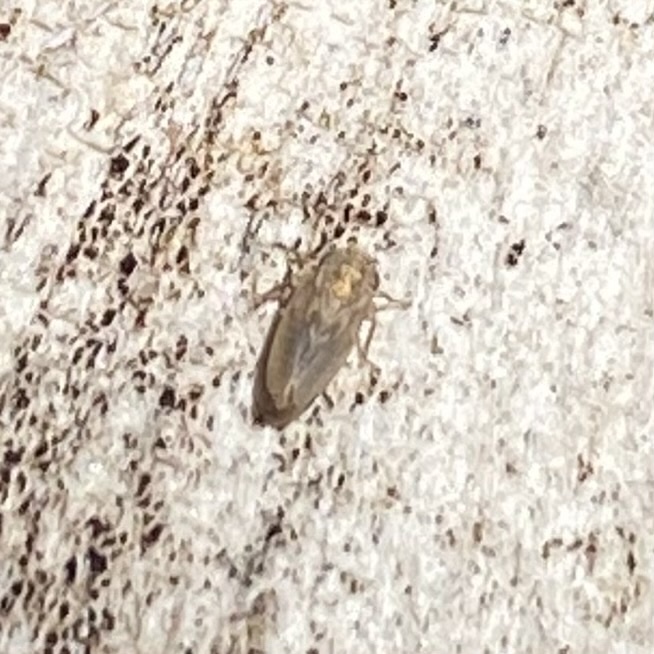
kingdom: Animalia
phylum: Arthropoda
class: Insecta
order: Hemiptera
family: Cicadellidae
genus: Ceratagallia
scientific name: Ceratagallia
